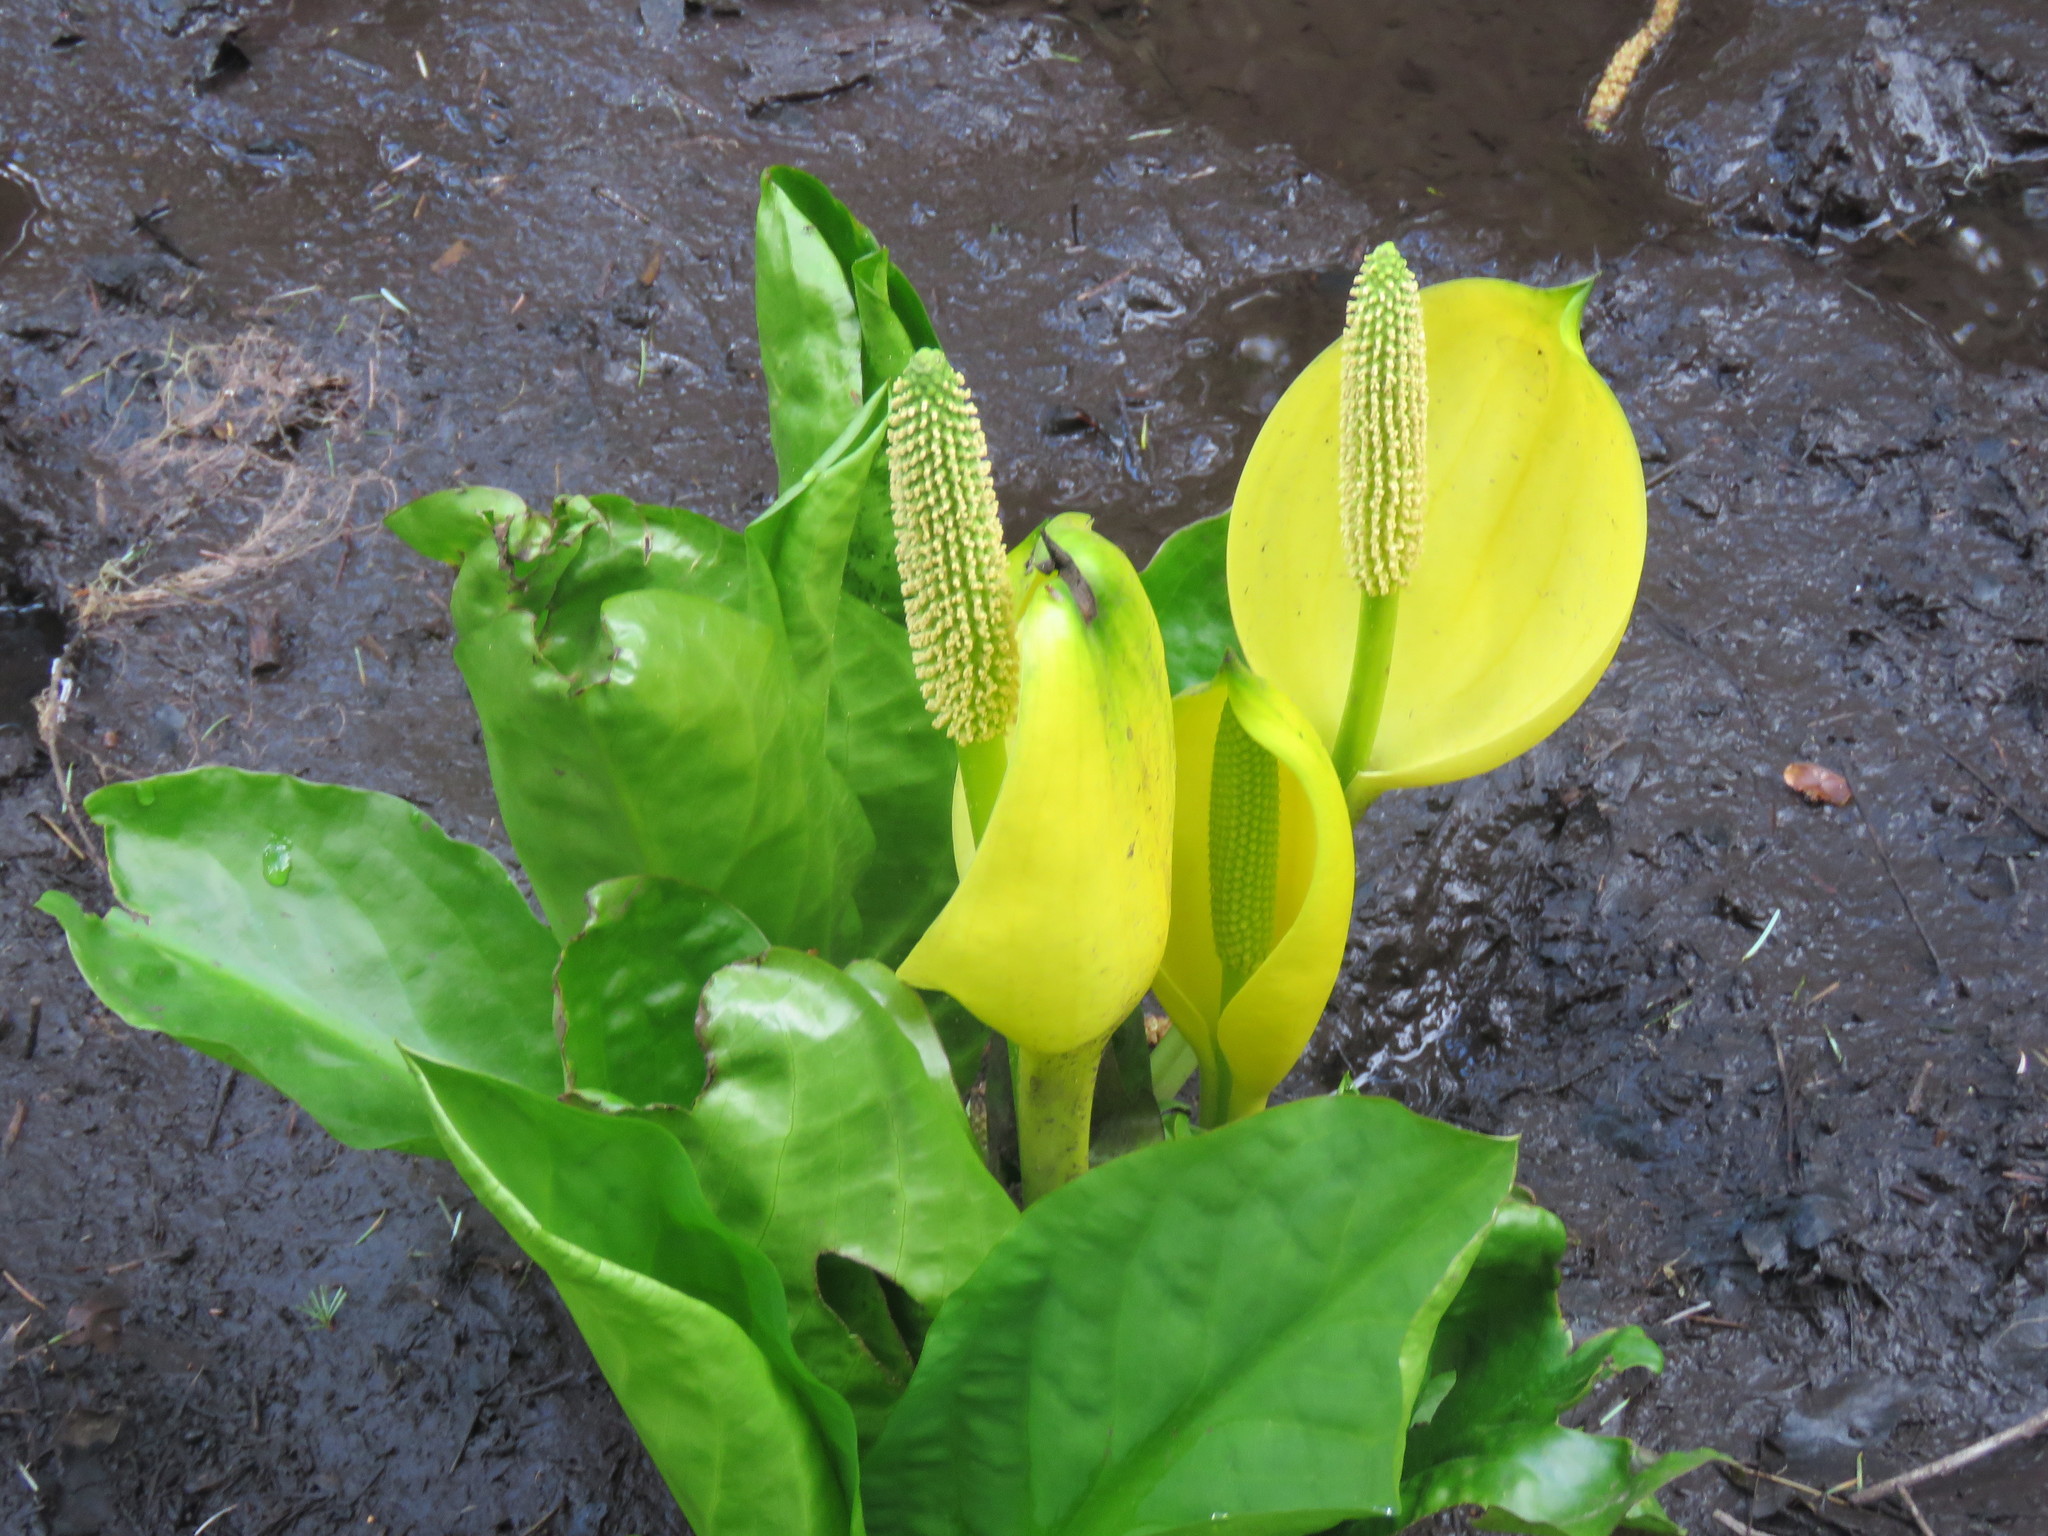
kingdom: Plantae
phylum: Tracheophyta
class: Liliopsida
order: Alismatales
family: Araceae
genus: Lysichiton
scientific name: Lysichiton americanus
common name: American skunk cabbage
